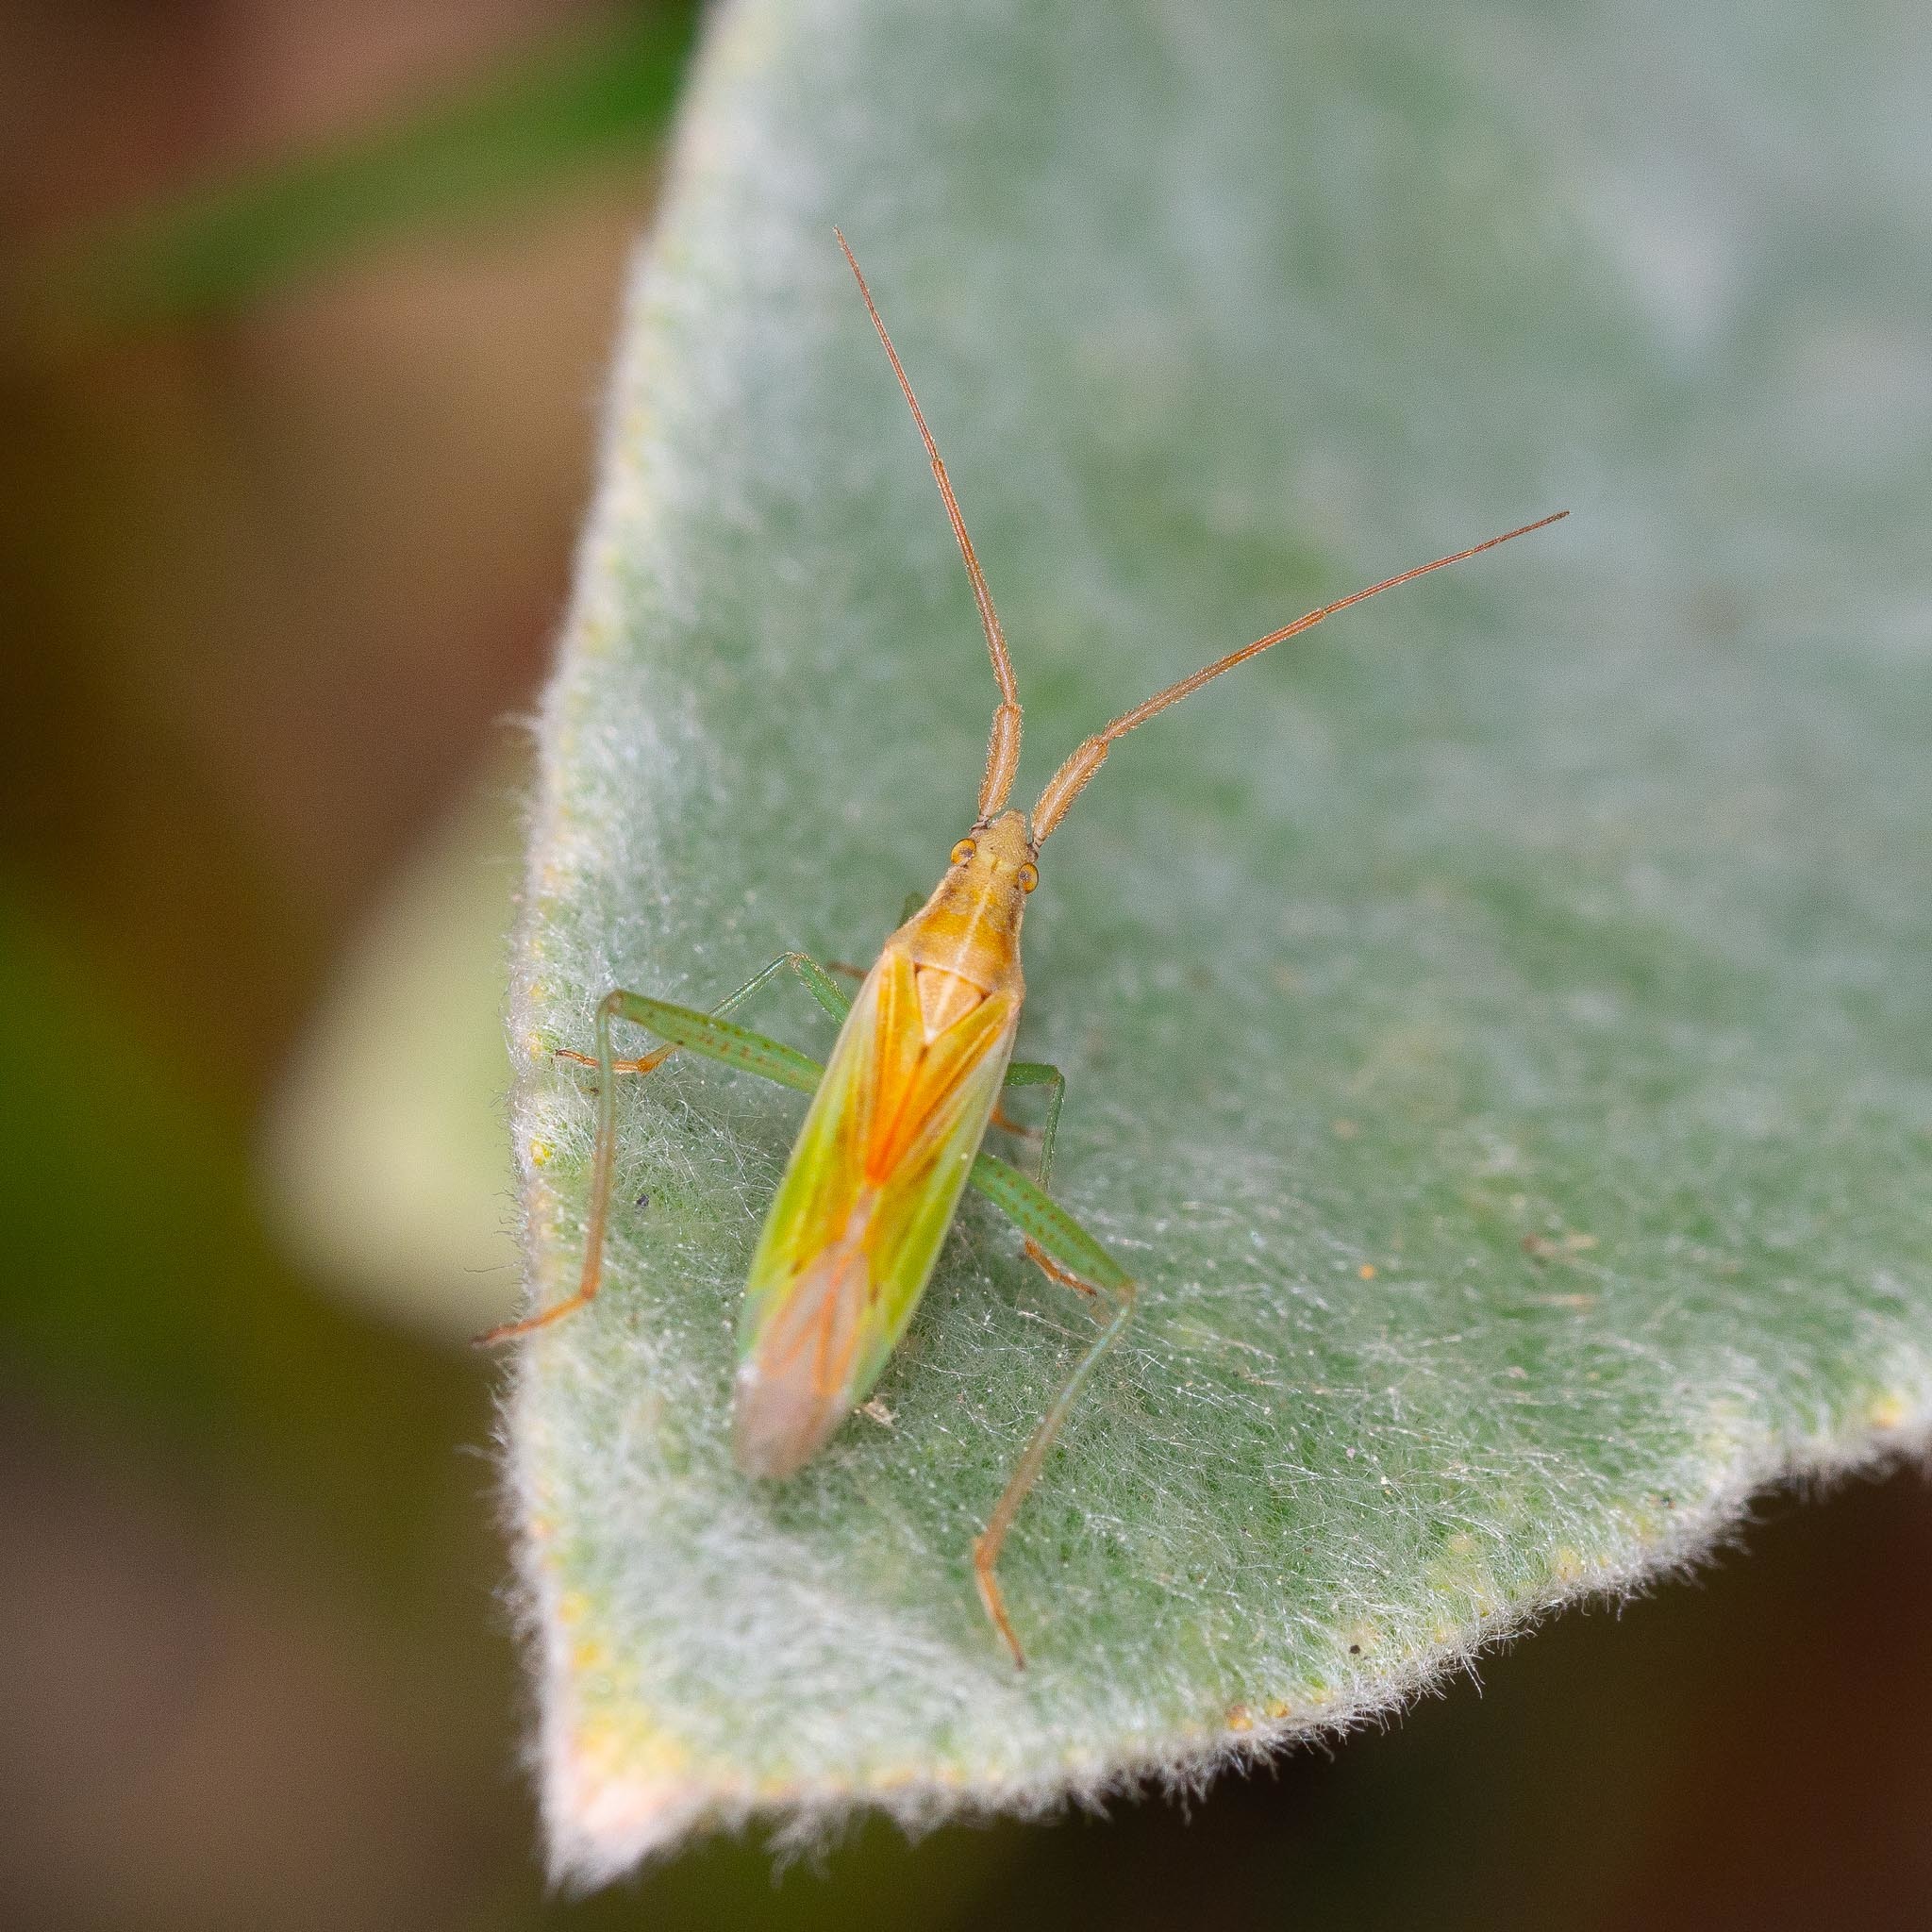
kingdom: Animalia
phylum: Arthropoda
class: Insecta
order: Hemiptera
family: Miridae
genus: Stenodema
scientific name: Stenodema laevigata
